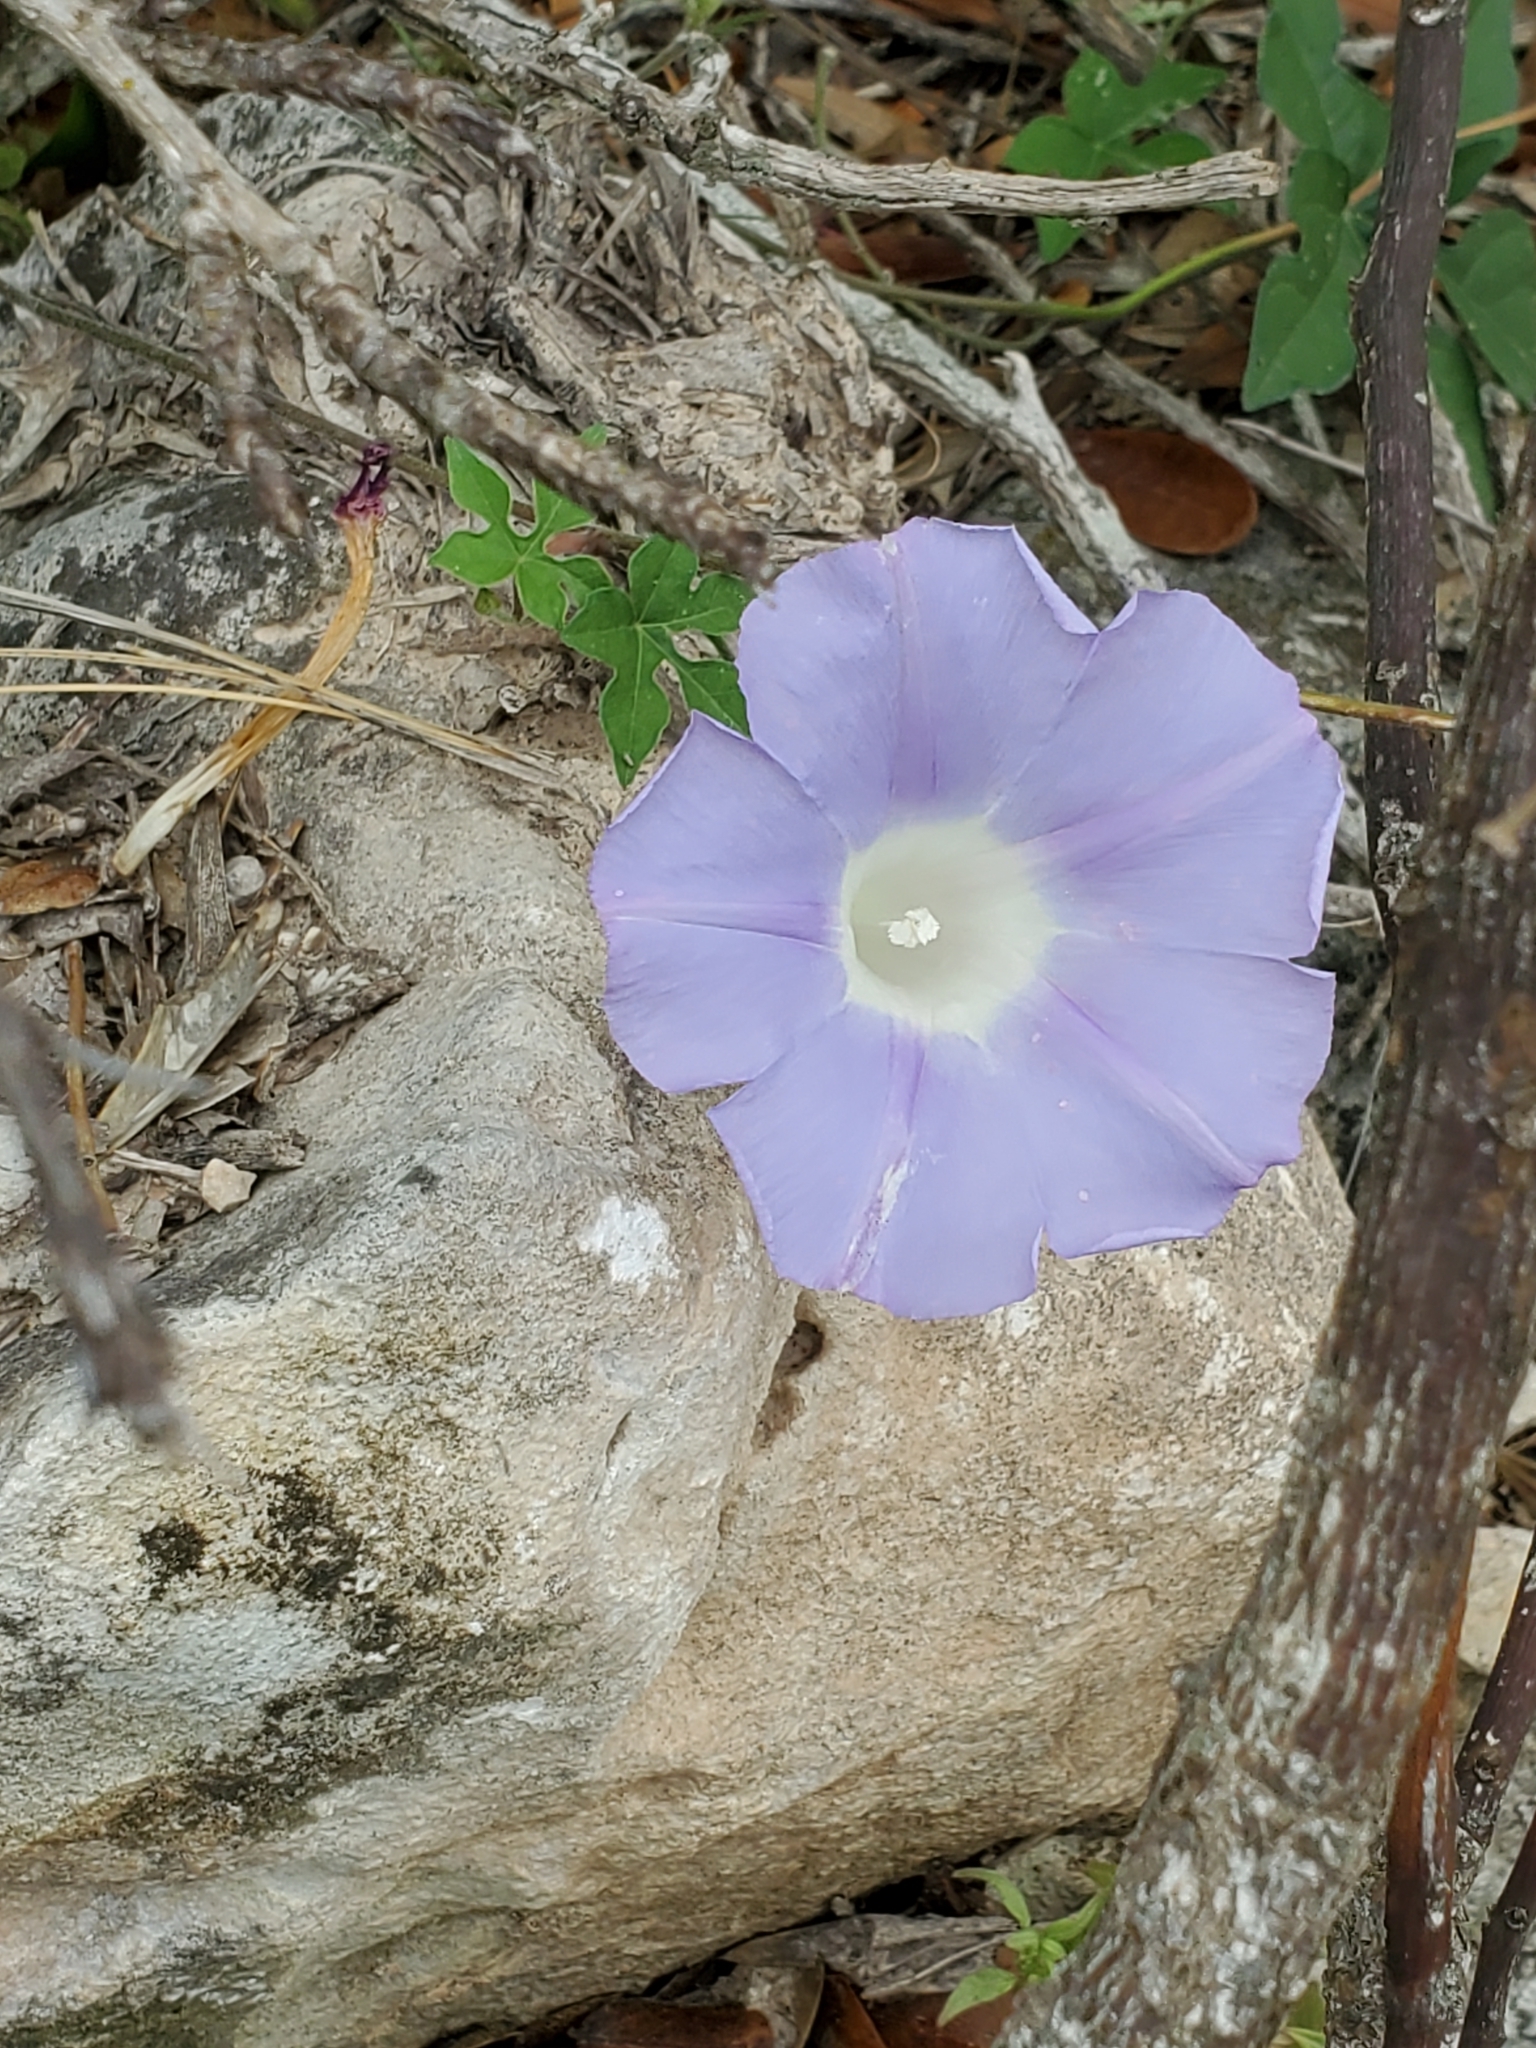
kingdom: Plantae
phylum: Tracheophyta
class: Magnoliopsida
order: Solanales
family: Convolvulaceae
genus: Ipomoea
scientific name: Ipomoea lindheimeri
